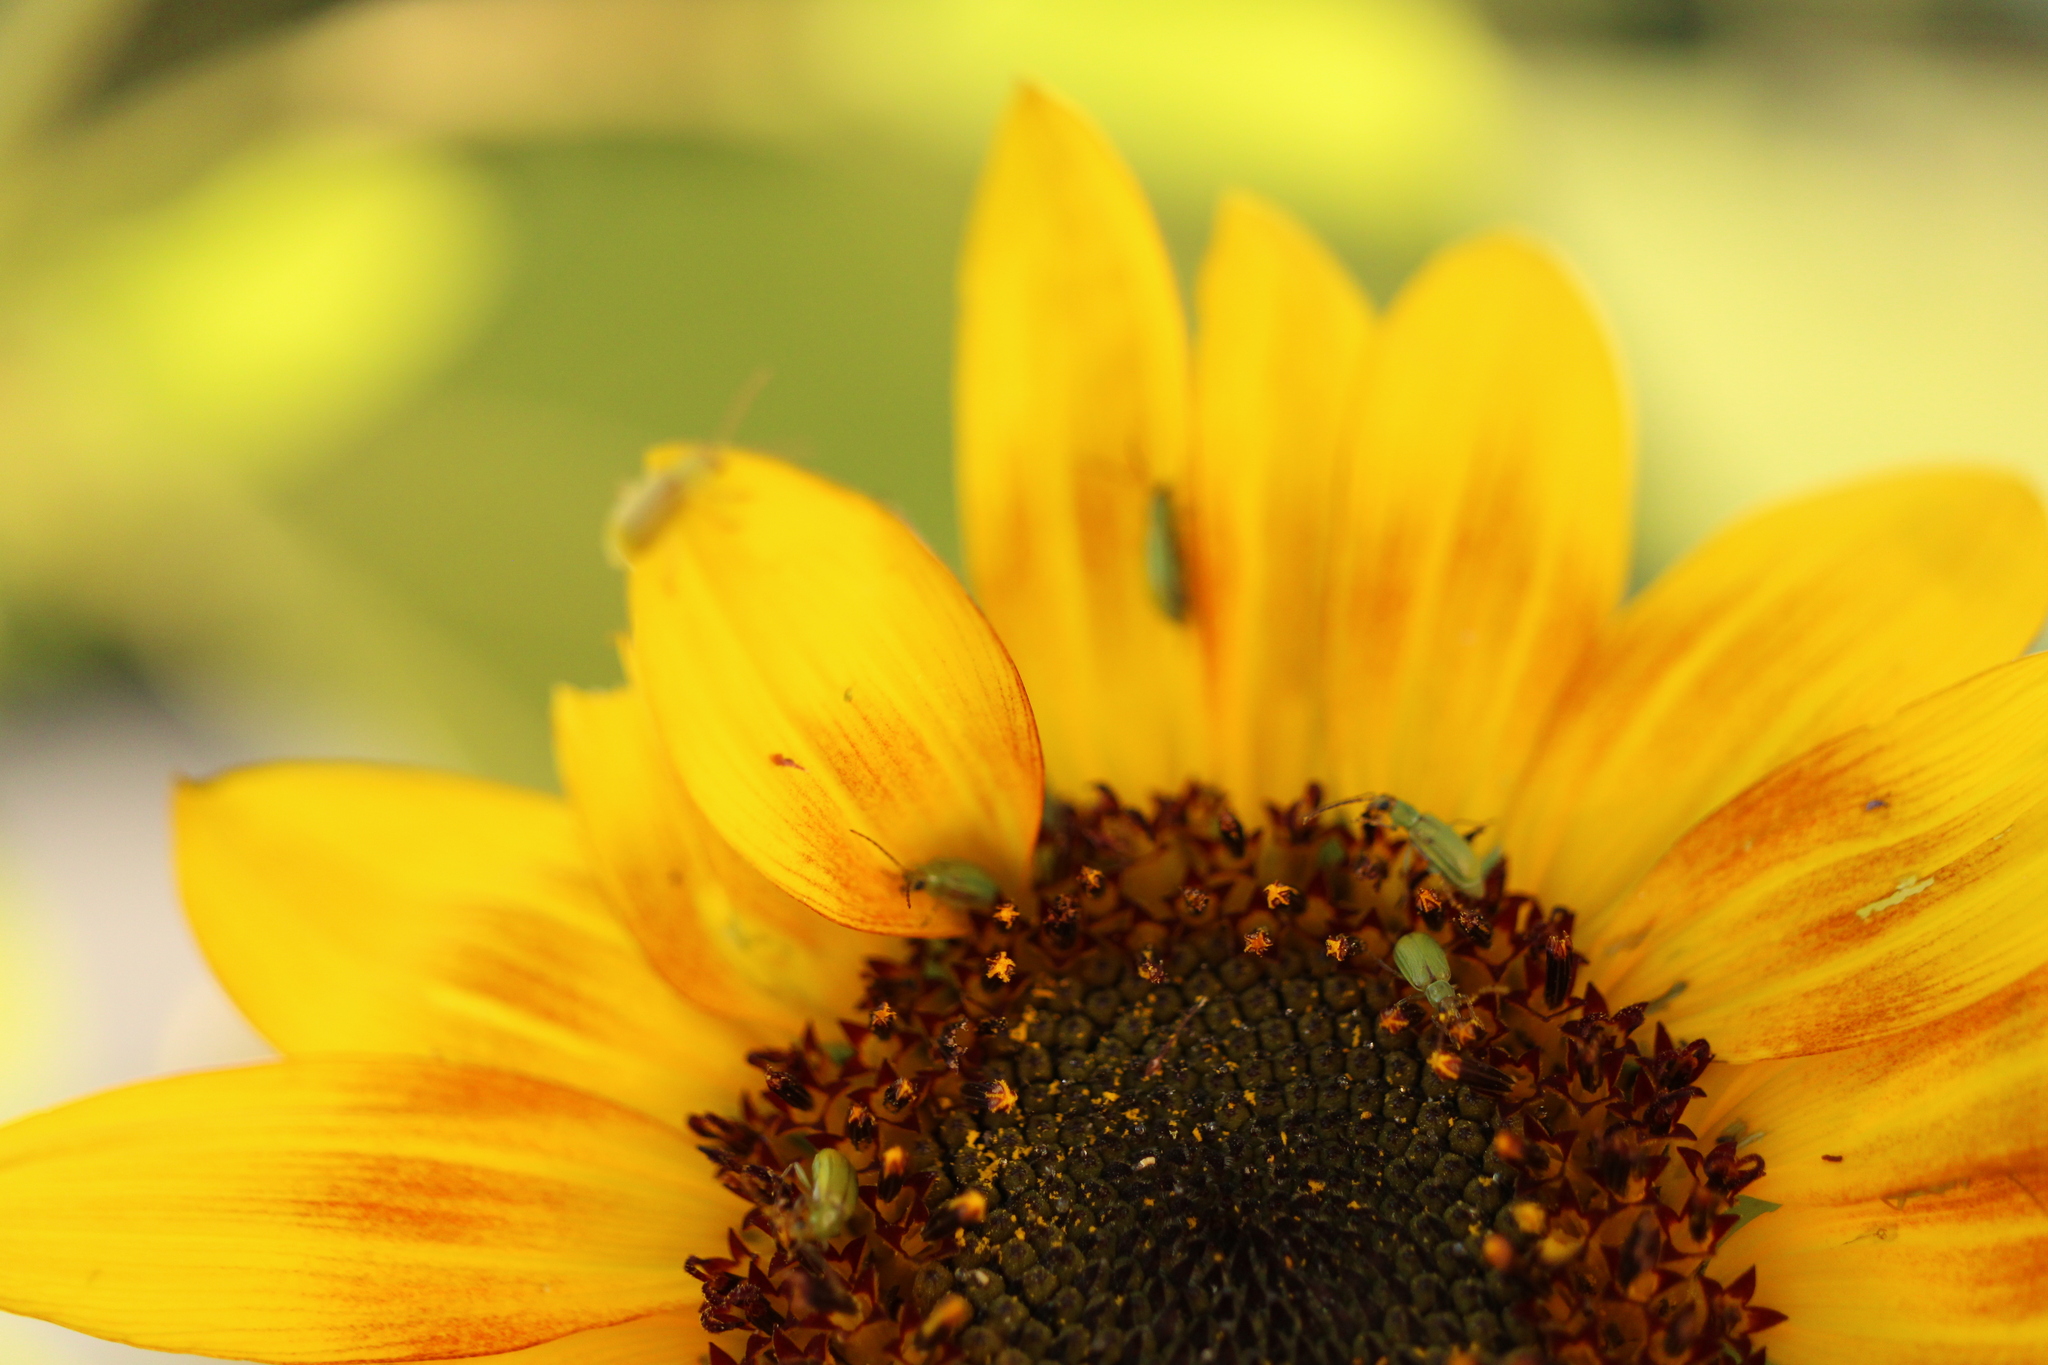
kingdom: Animalia
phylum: Arthropoda
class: Insecta
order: Coleoptera
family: Chrysomelidae
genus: Diabrotica
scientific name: Diabrotica barberi
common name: Northern corn rootworm
